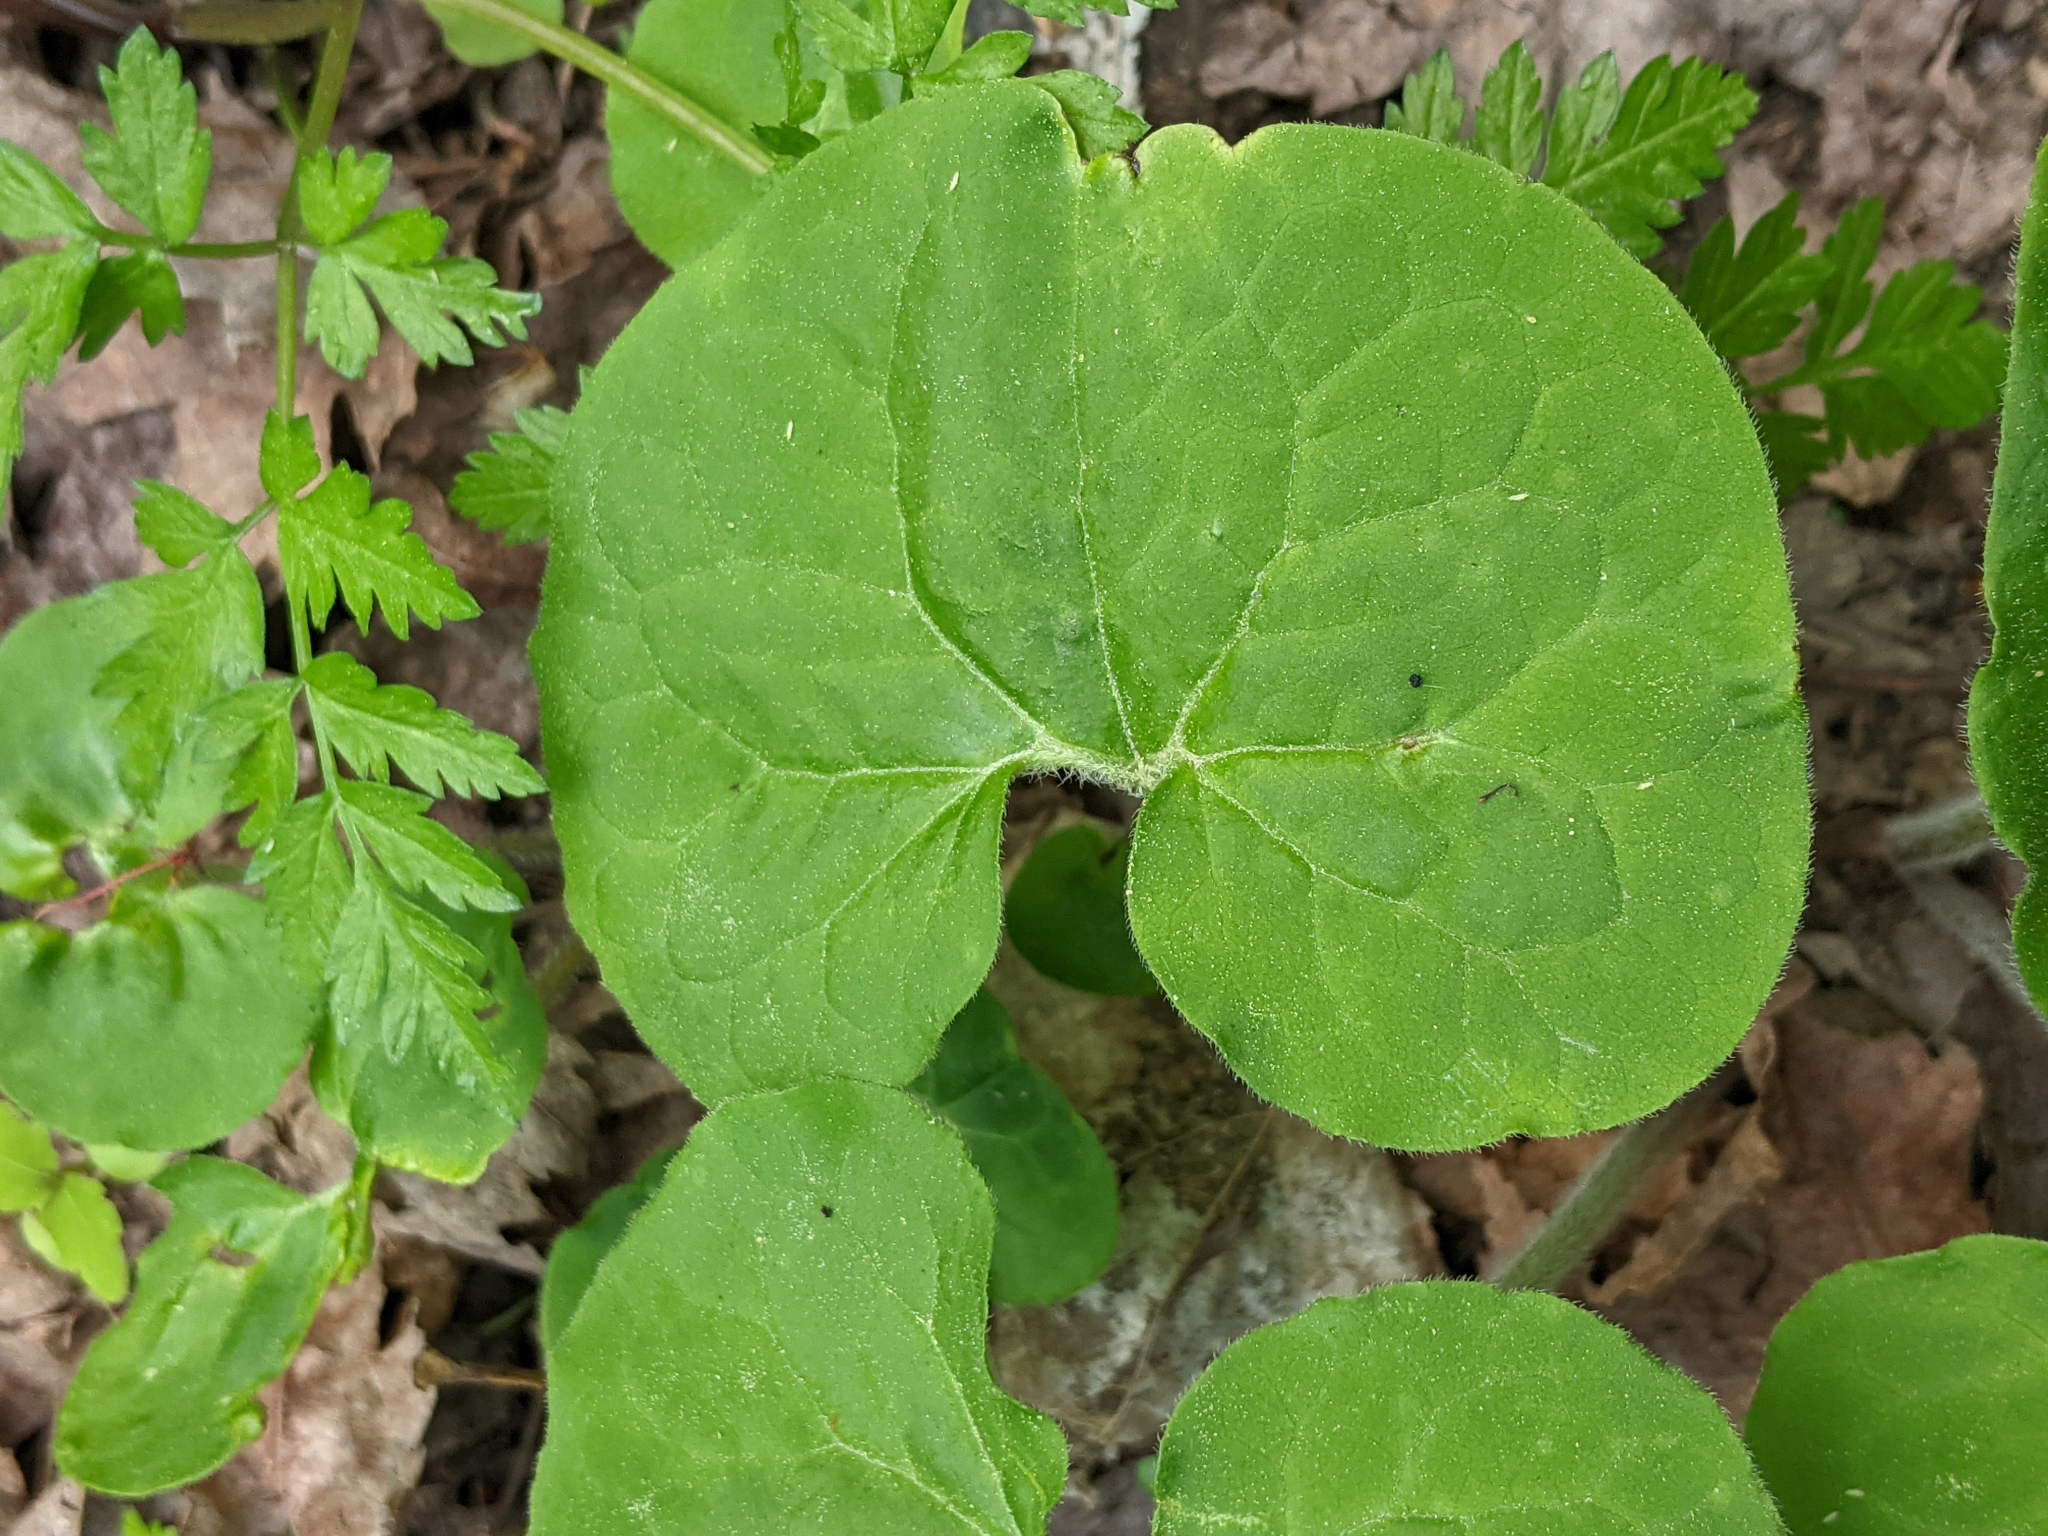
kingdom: Plantae
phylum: Tracheophyta
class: Magnoliopsida
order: Piperales
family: Aristolochiaceae
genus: Asarum
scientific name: Asarum canadense
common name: Wild ginger
